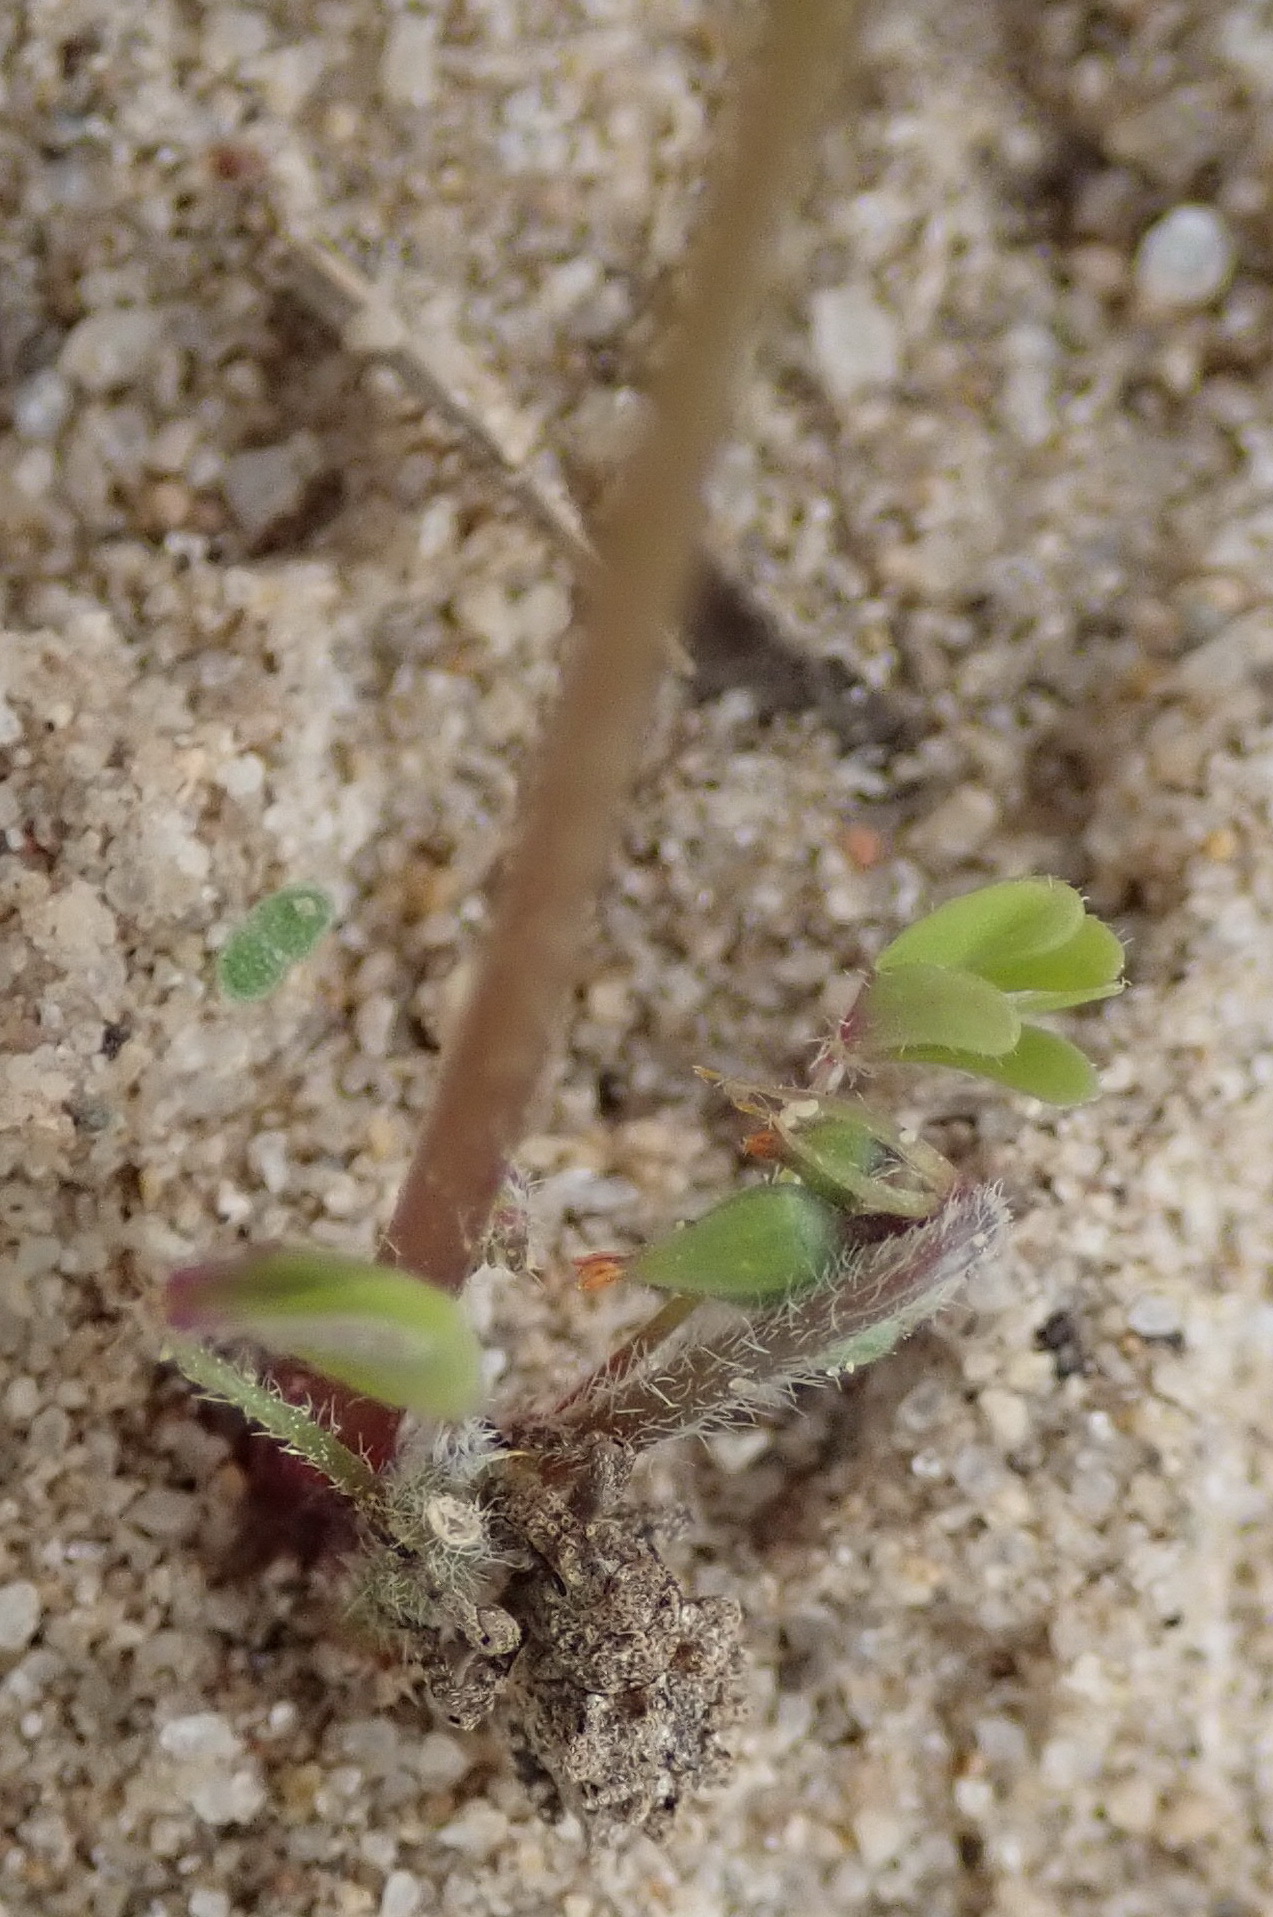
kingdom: Plantae
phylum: Tracheophyta
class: Magnoliopsida
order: Oxalidales
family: Oxalidaceae
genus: Oxalis
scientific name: Oxalis caprina
